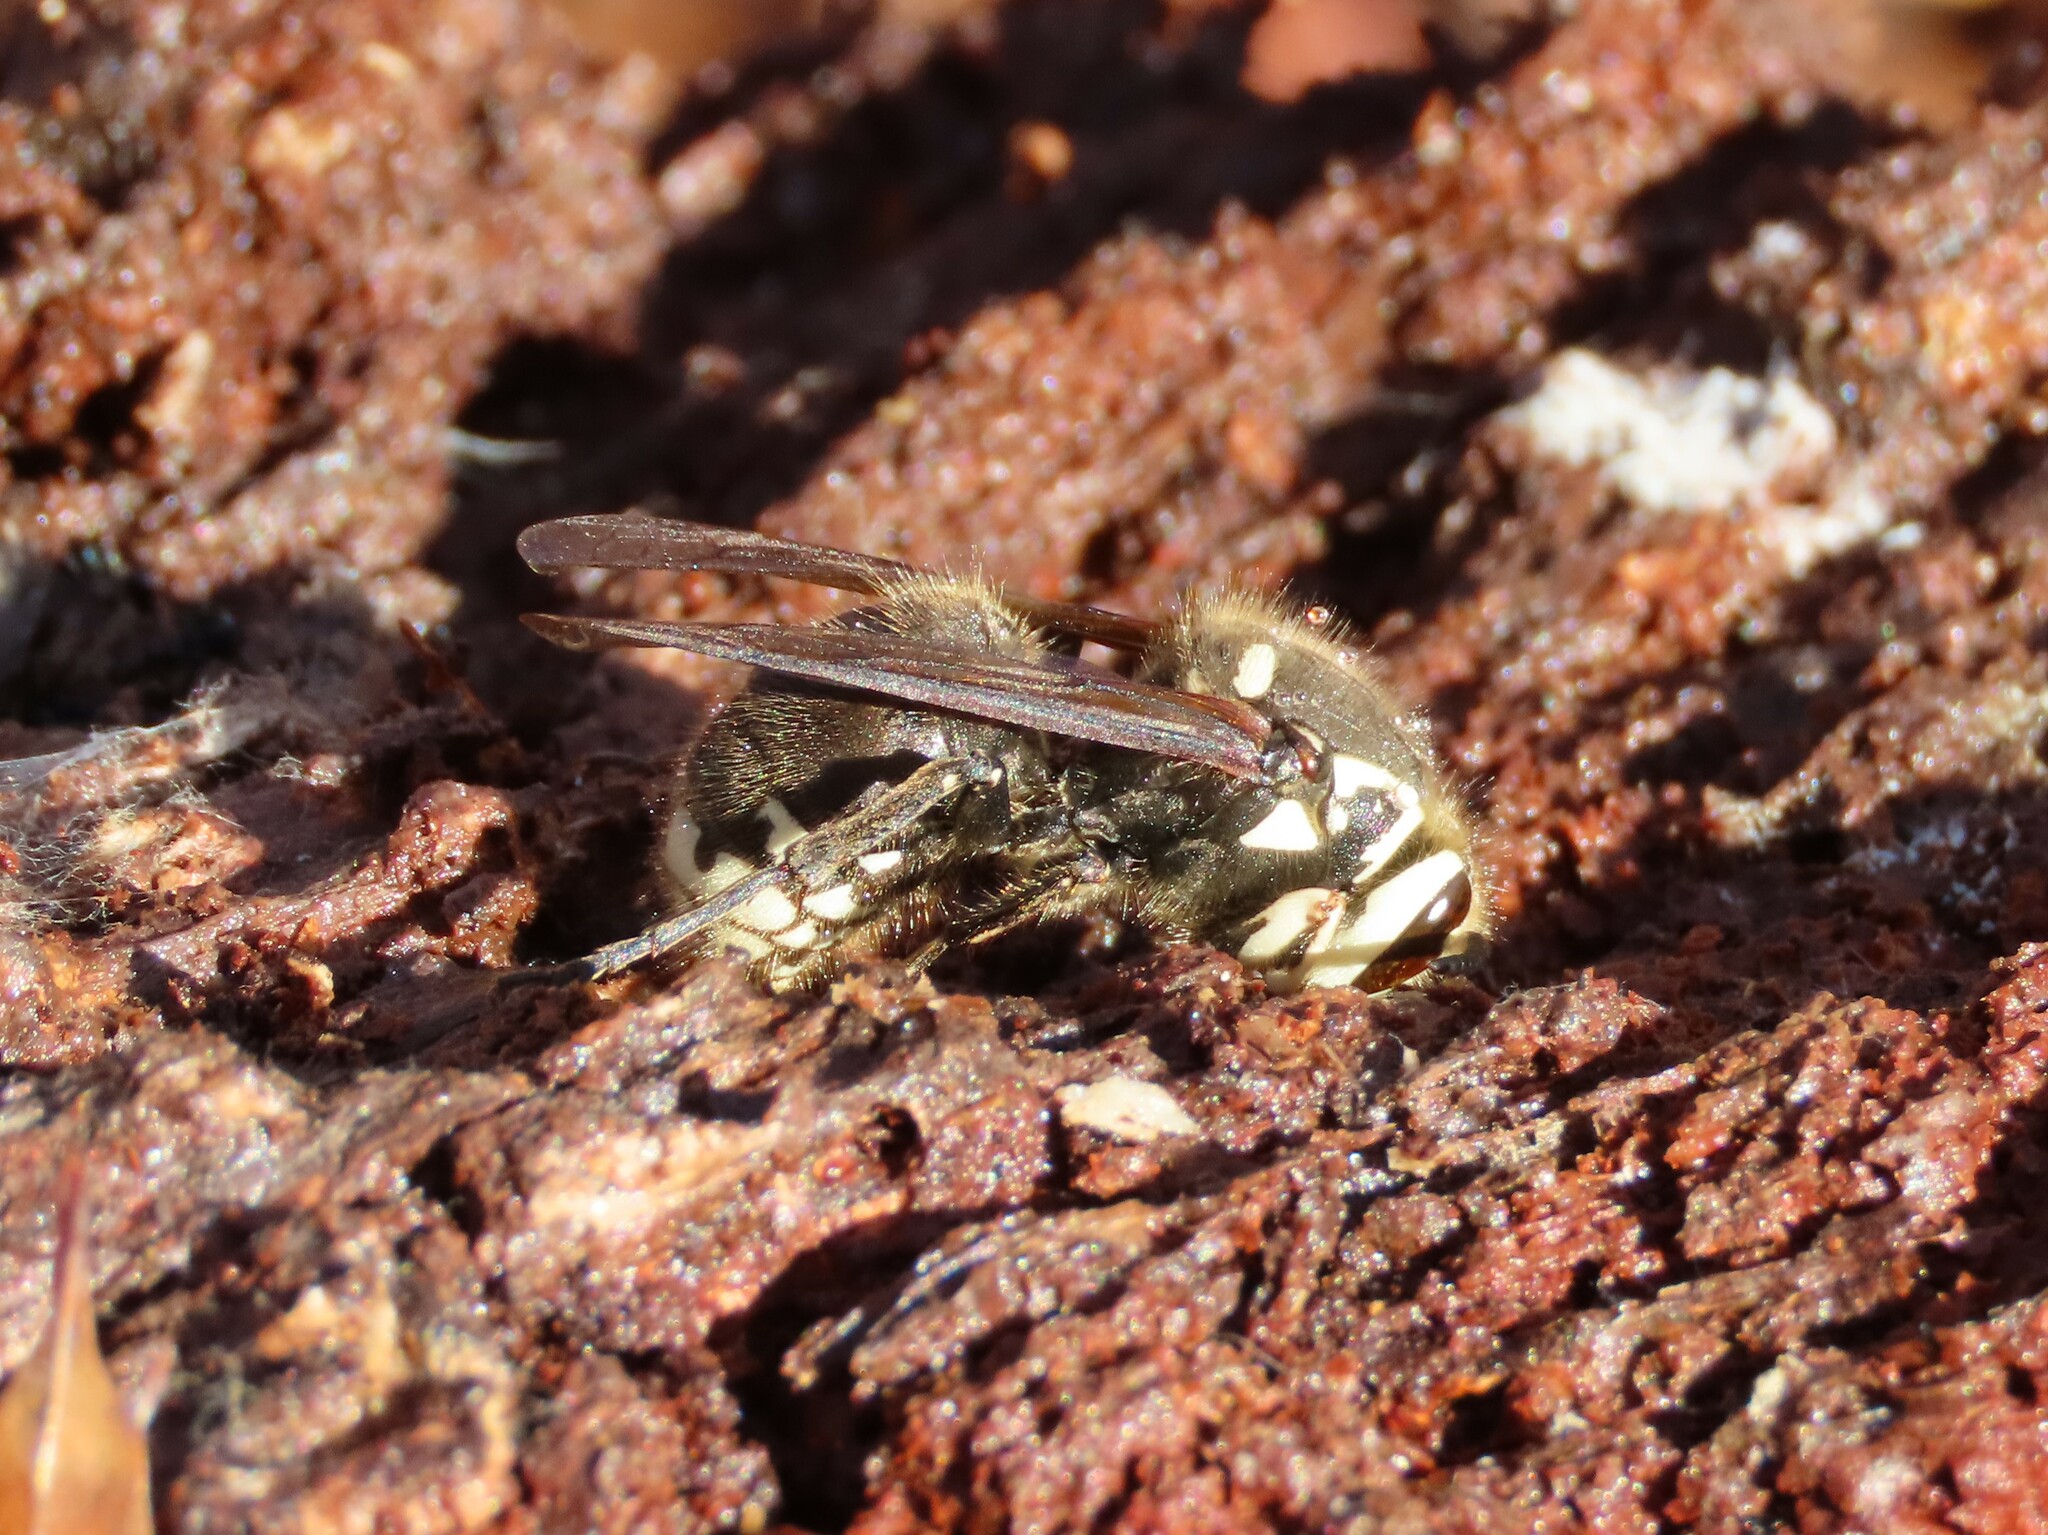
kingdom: Animalia
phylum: Arthropoda
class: Insecta
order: Hymenoptera
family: Vespidae
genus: Dolichovespula
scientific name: Dolichovespula maculata
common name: Bald-faced hornet
